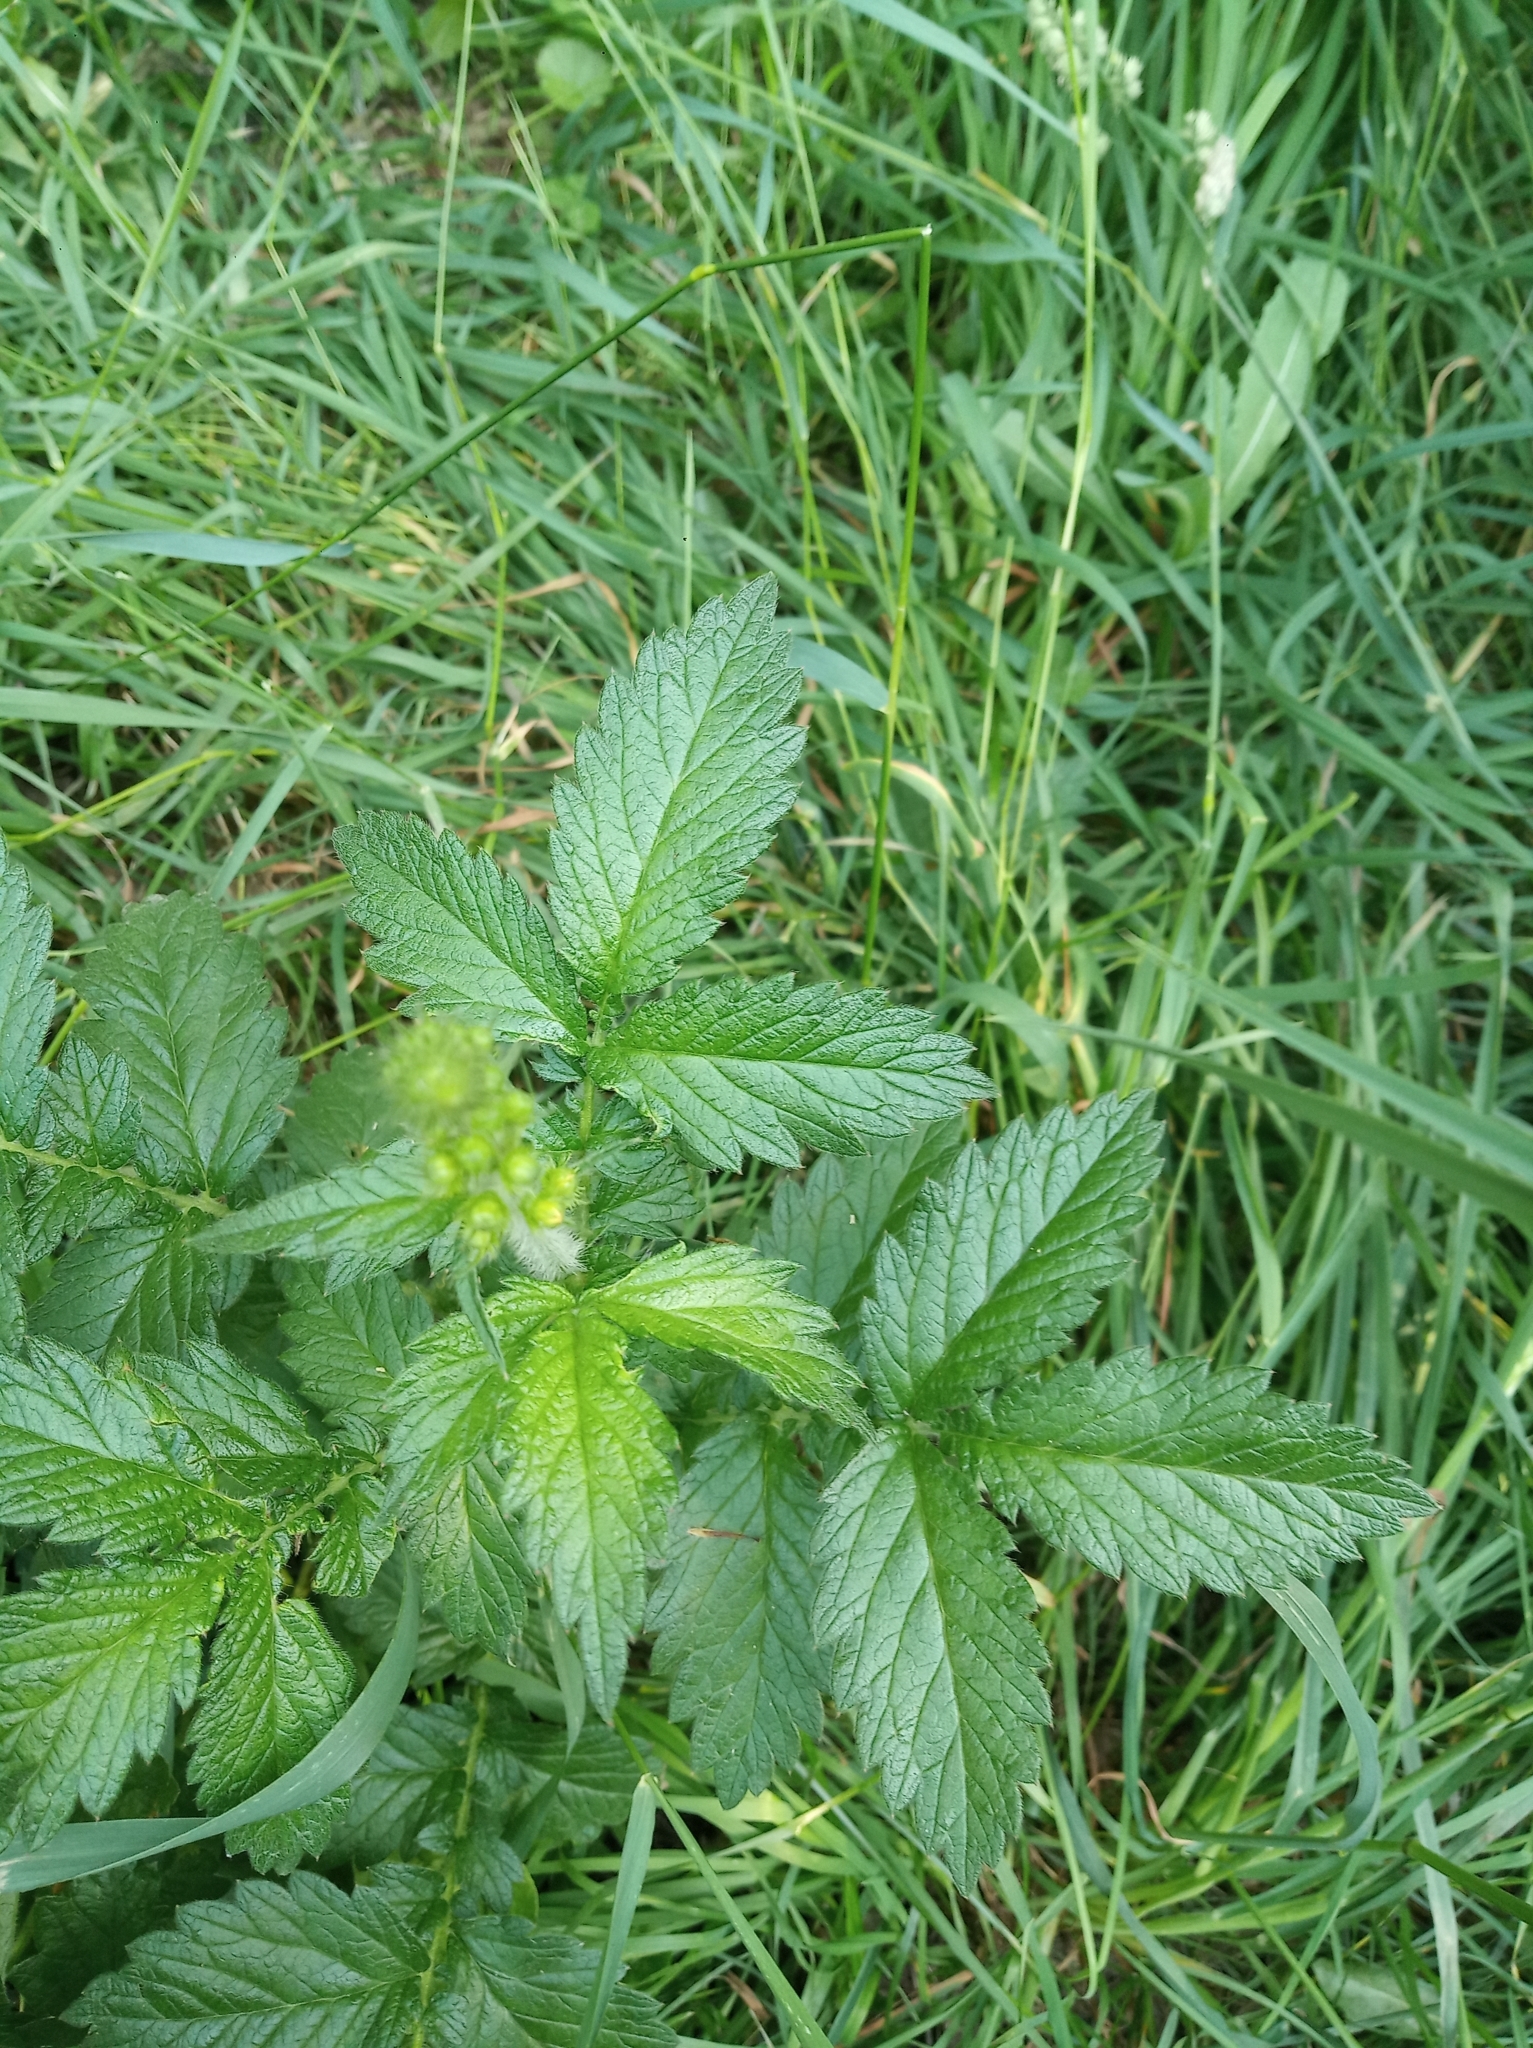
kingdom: Plantae
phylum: Tracheophyta
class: Magnoliopsida
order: Rosales
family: Rosaceae
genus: Agrimonia
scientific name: Agrimonia eupatoria
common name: Agrimony
